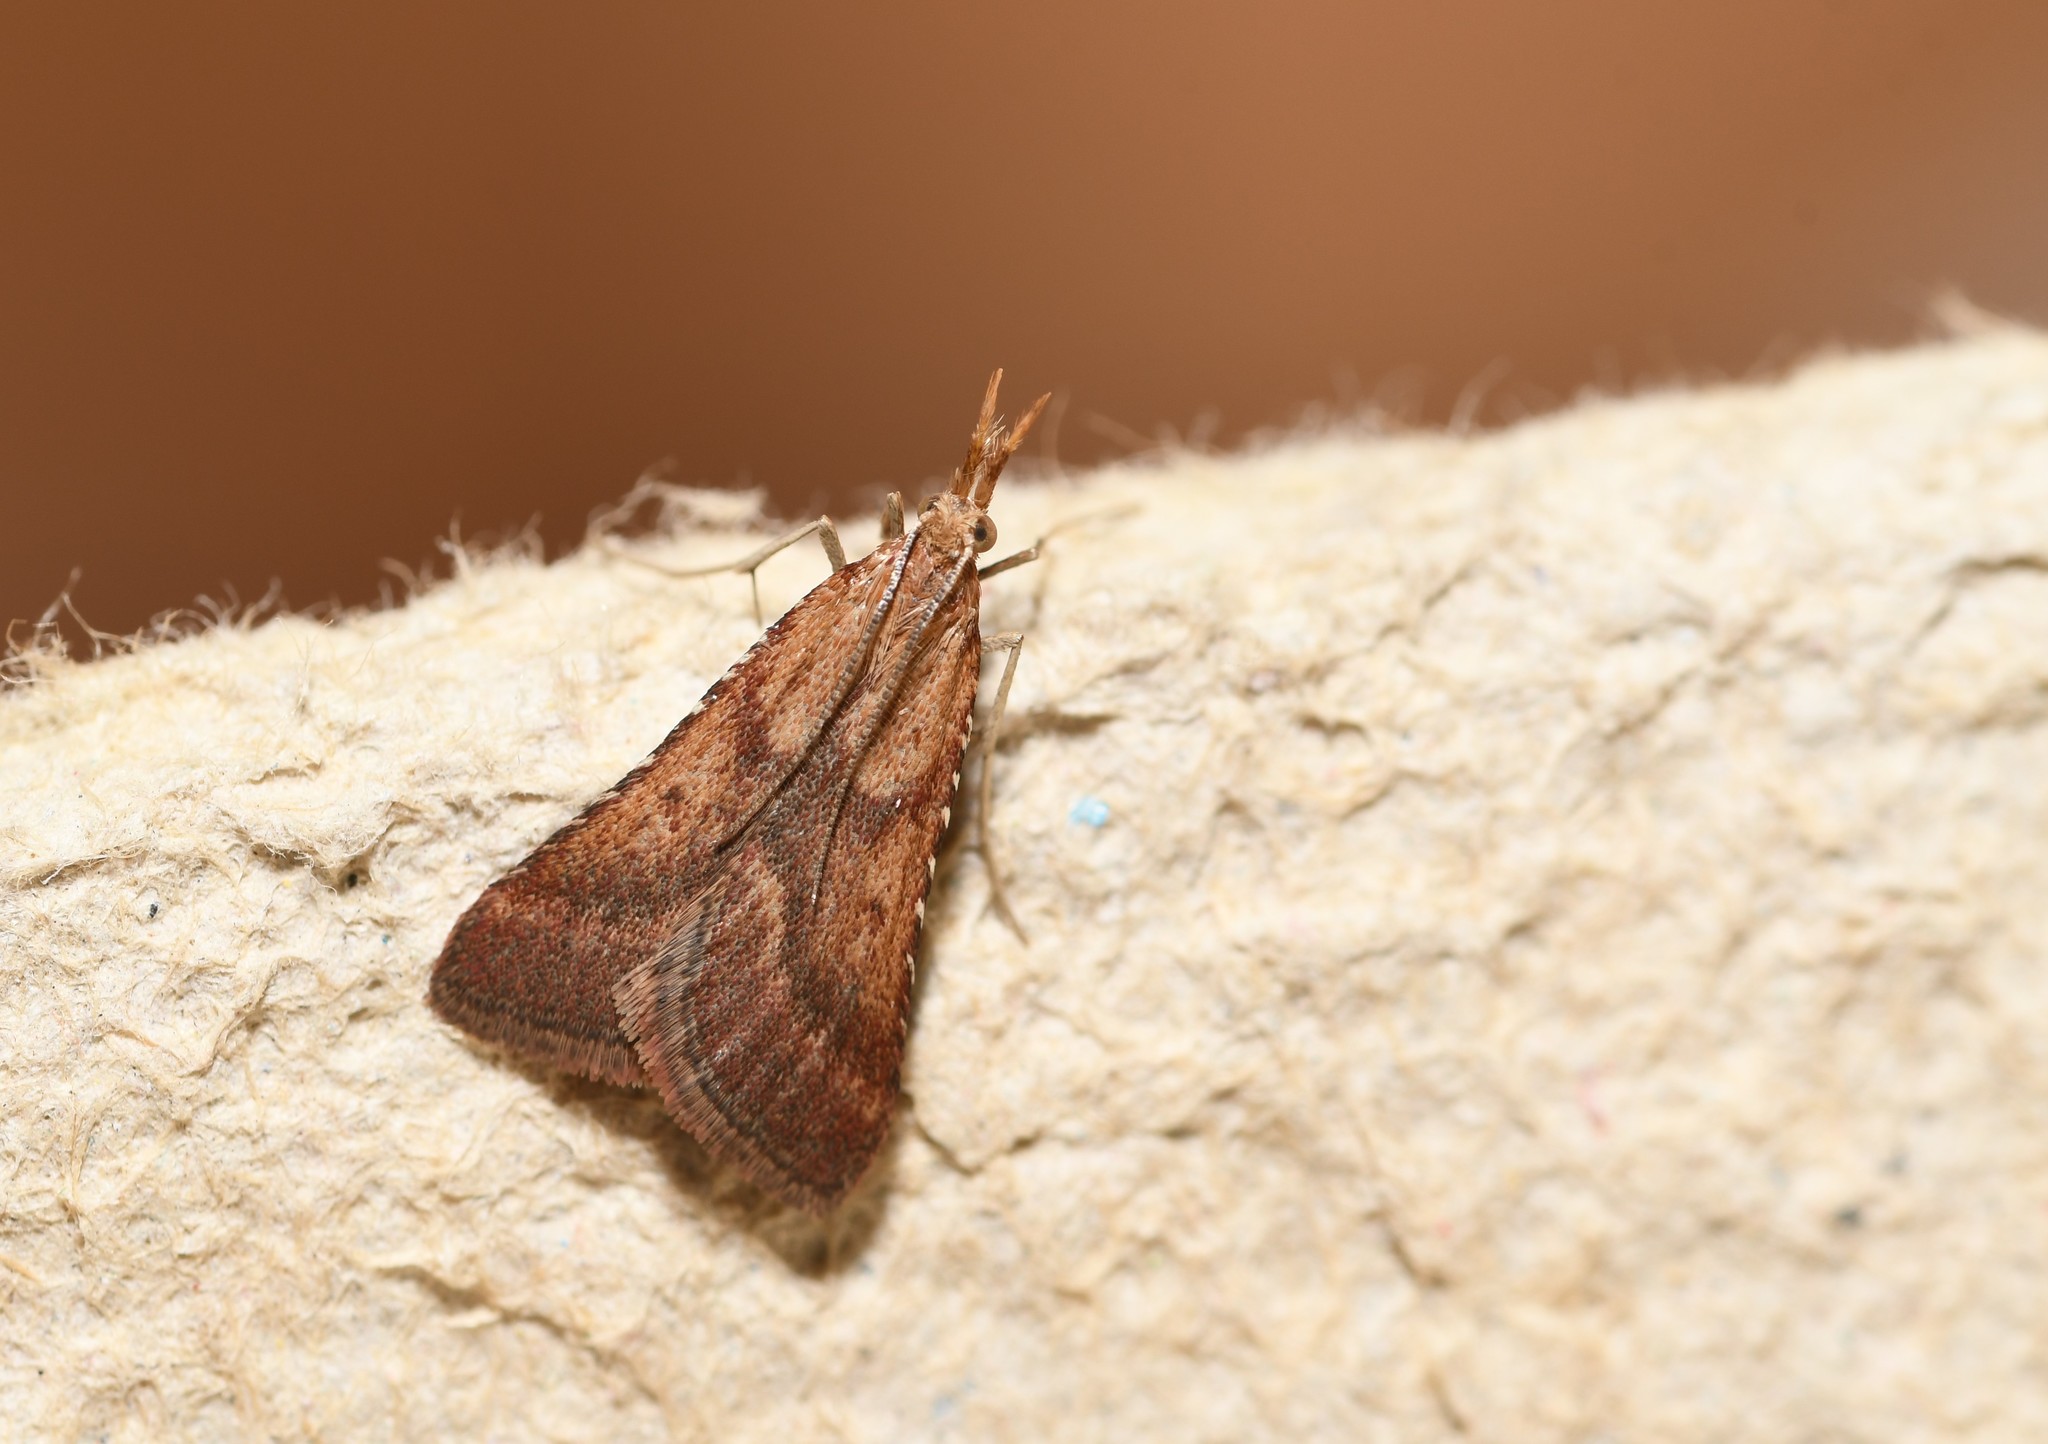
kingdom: Animalia
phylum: Arthropoda
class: Insecta
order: Lepidoptera
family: Pyralidae
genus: Synaphe
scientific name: Synaphe punctalis
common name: Long-legged tabby
